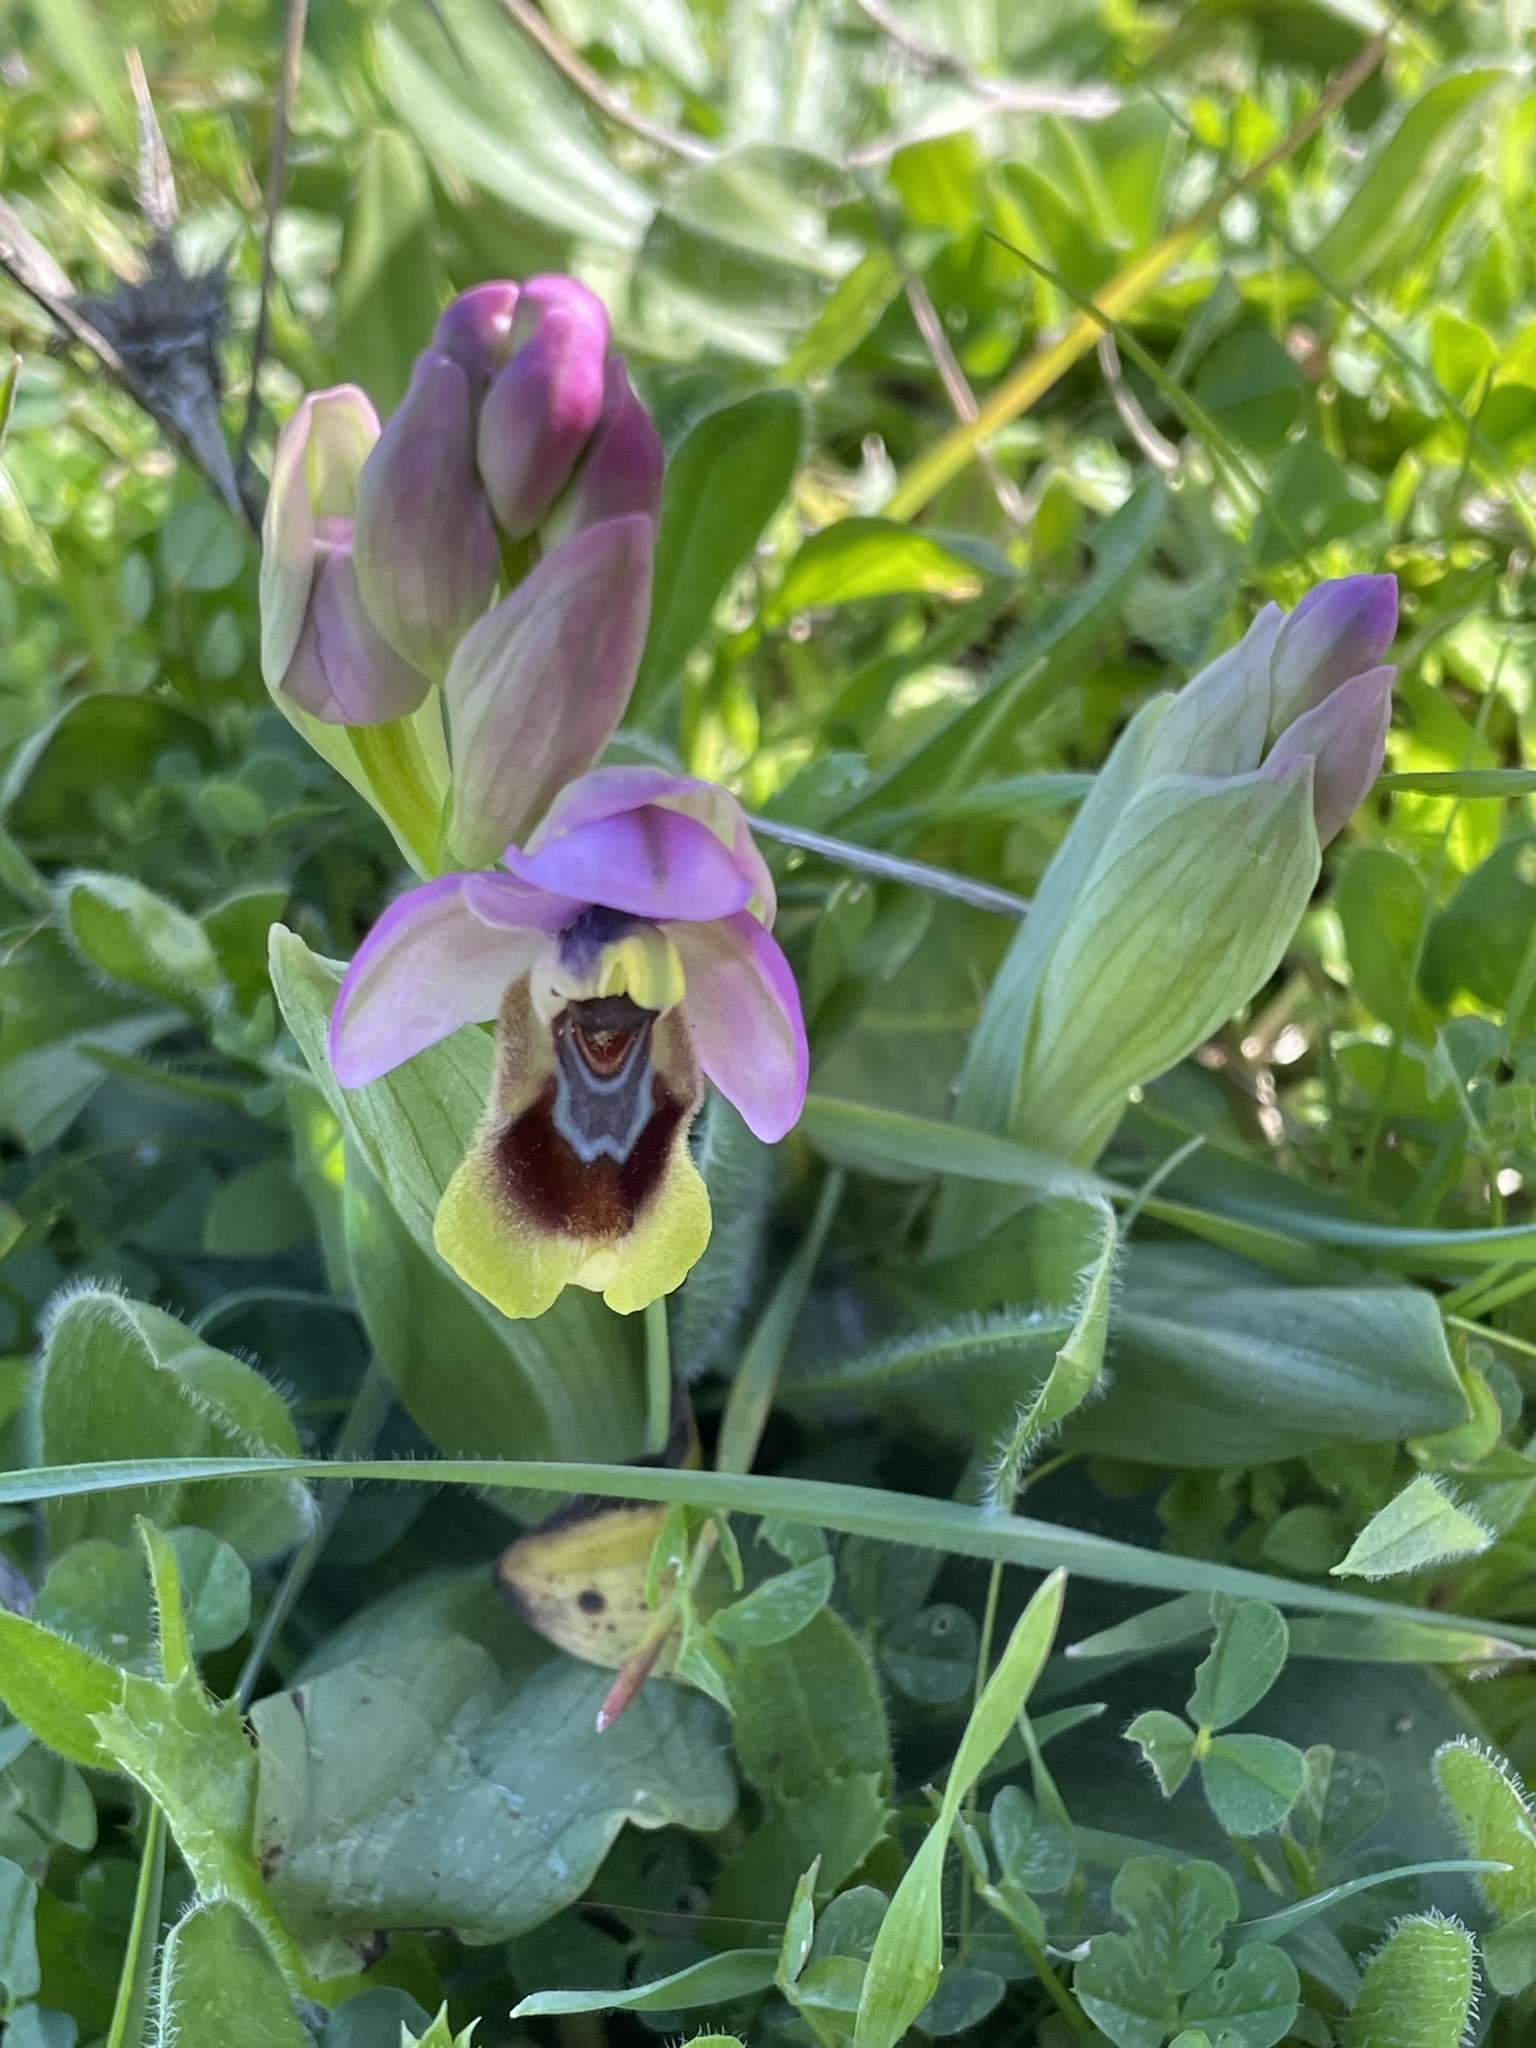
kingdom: Plantae
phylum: Tracheophyta
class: Liliopsida
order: Asparagales
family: Orchidaceae
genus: Ophrys
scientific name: Ophrys tenthredinifera
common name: Sawfly orchid
